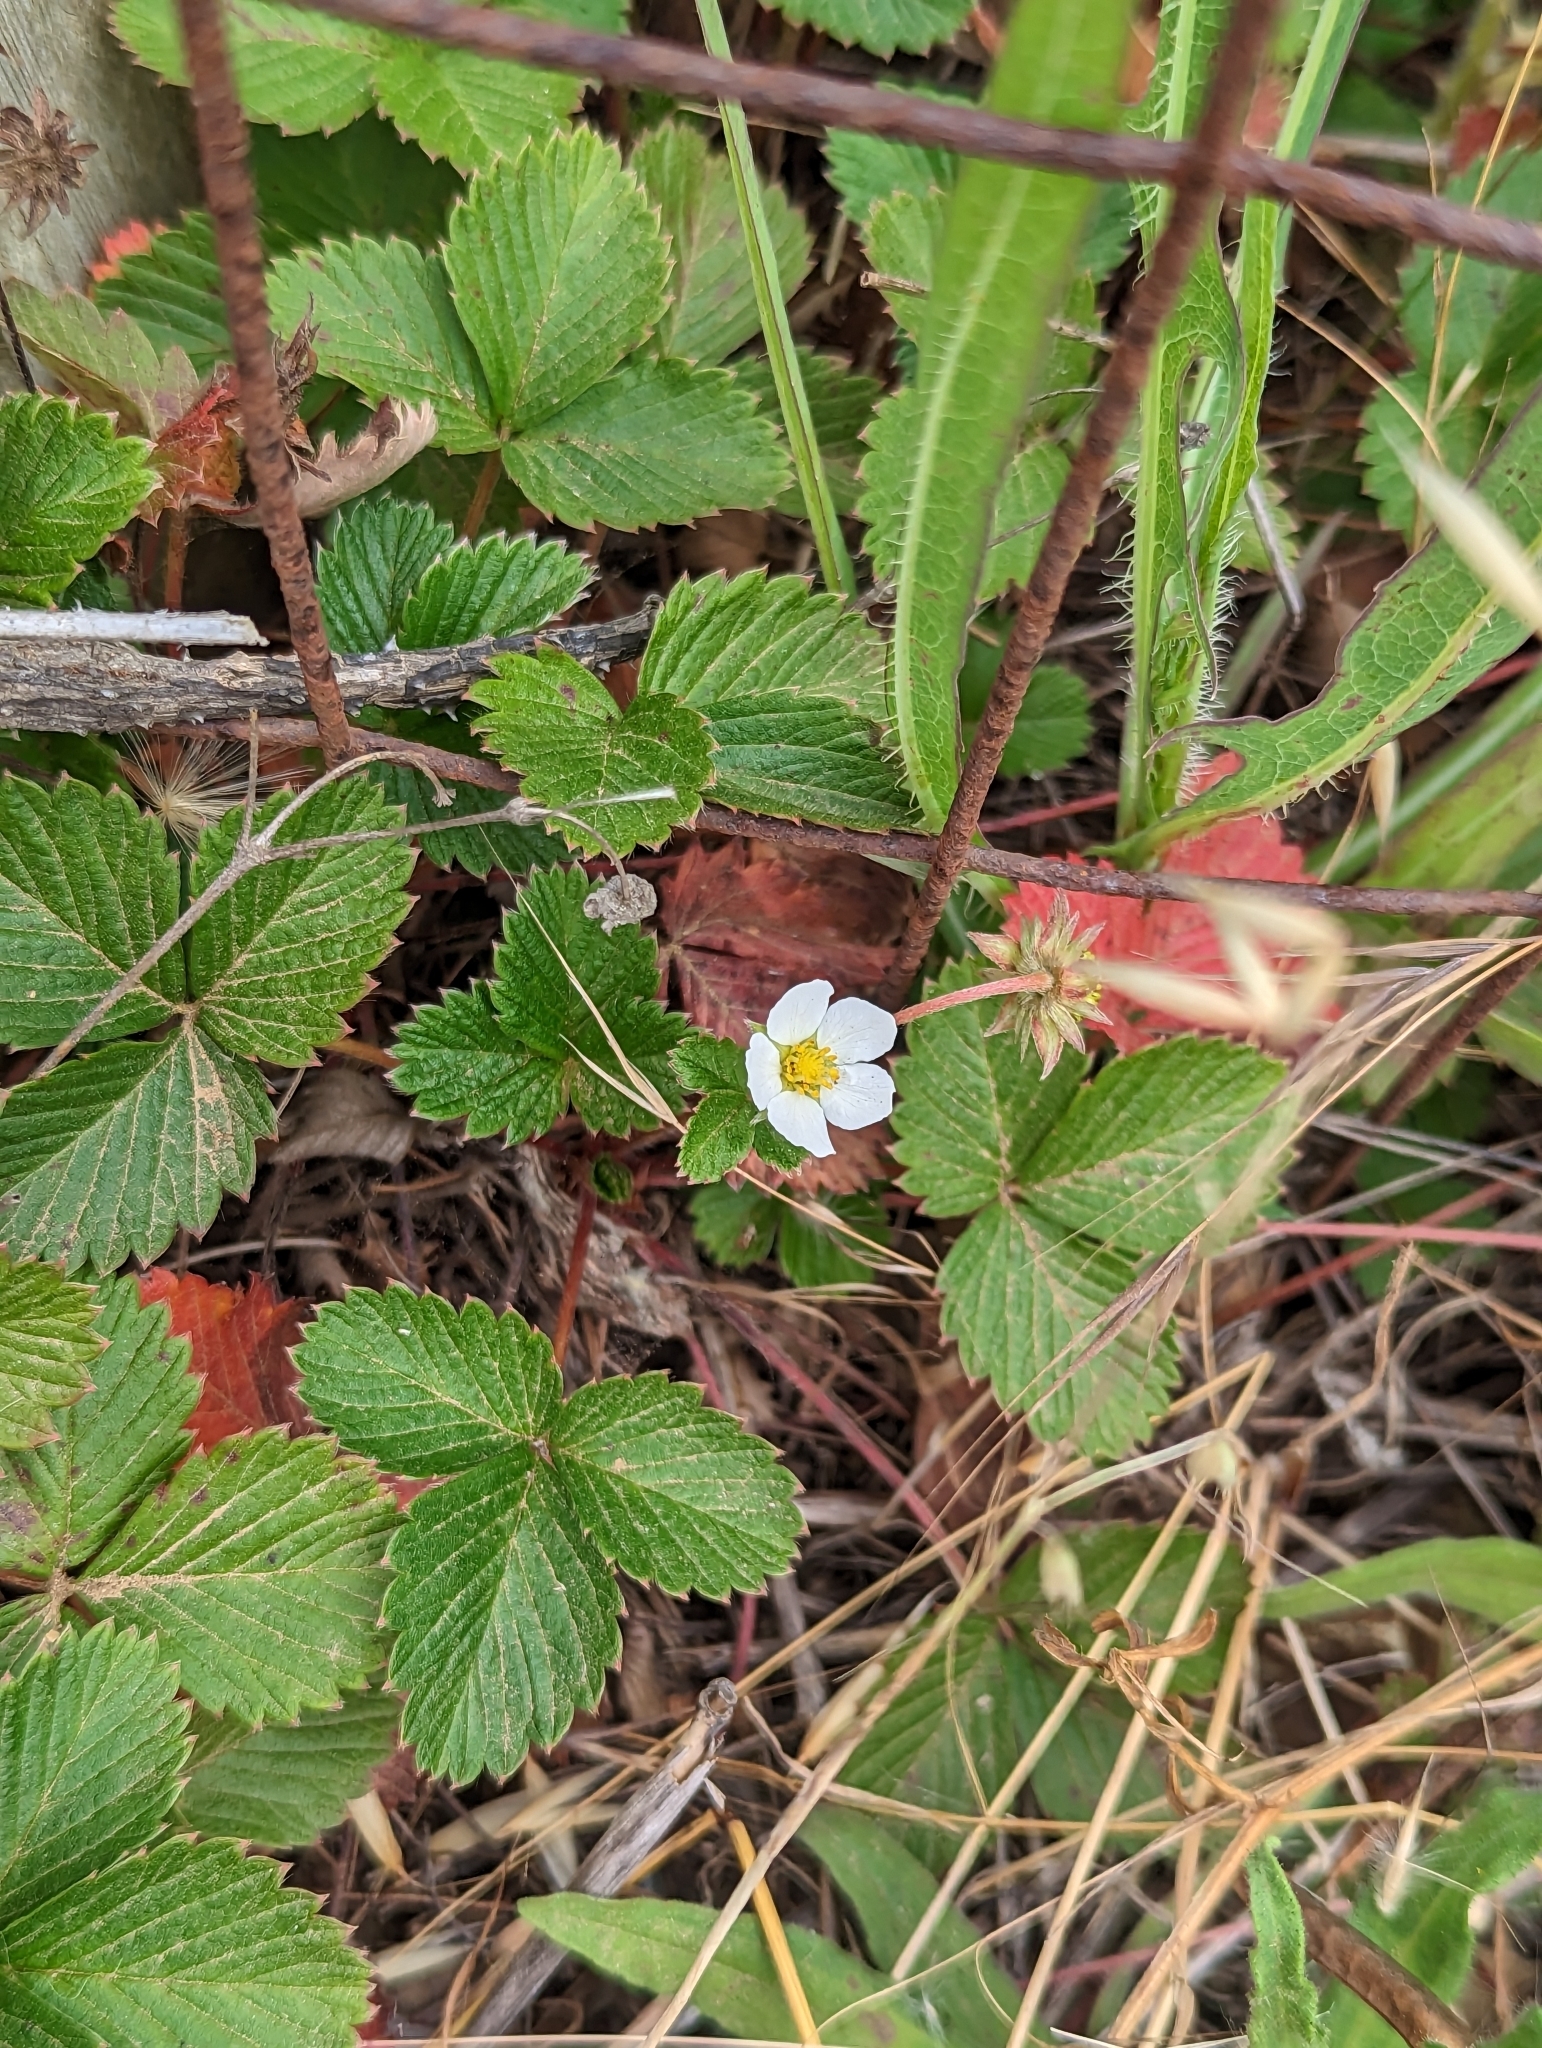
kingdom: Plantae
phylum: Tracheophyta
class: Magnoliopsida
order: Rosales
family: Rosaceae
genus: Fragaria
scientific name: Fragaria vesca
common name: Wild strawberry
